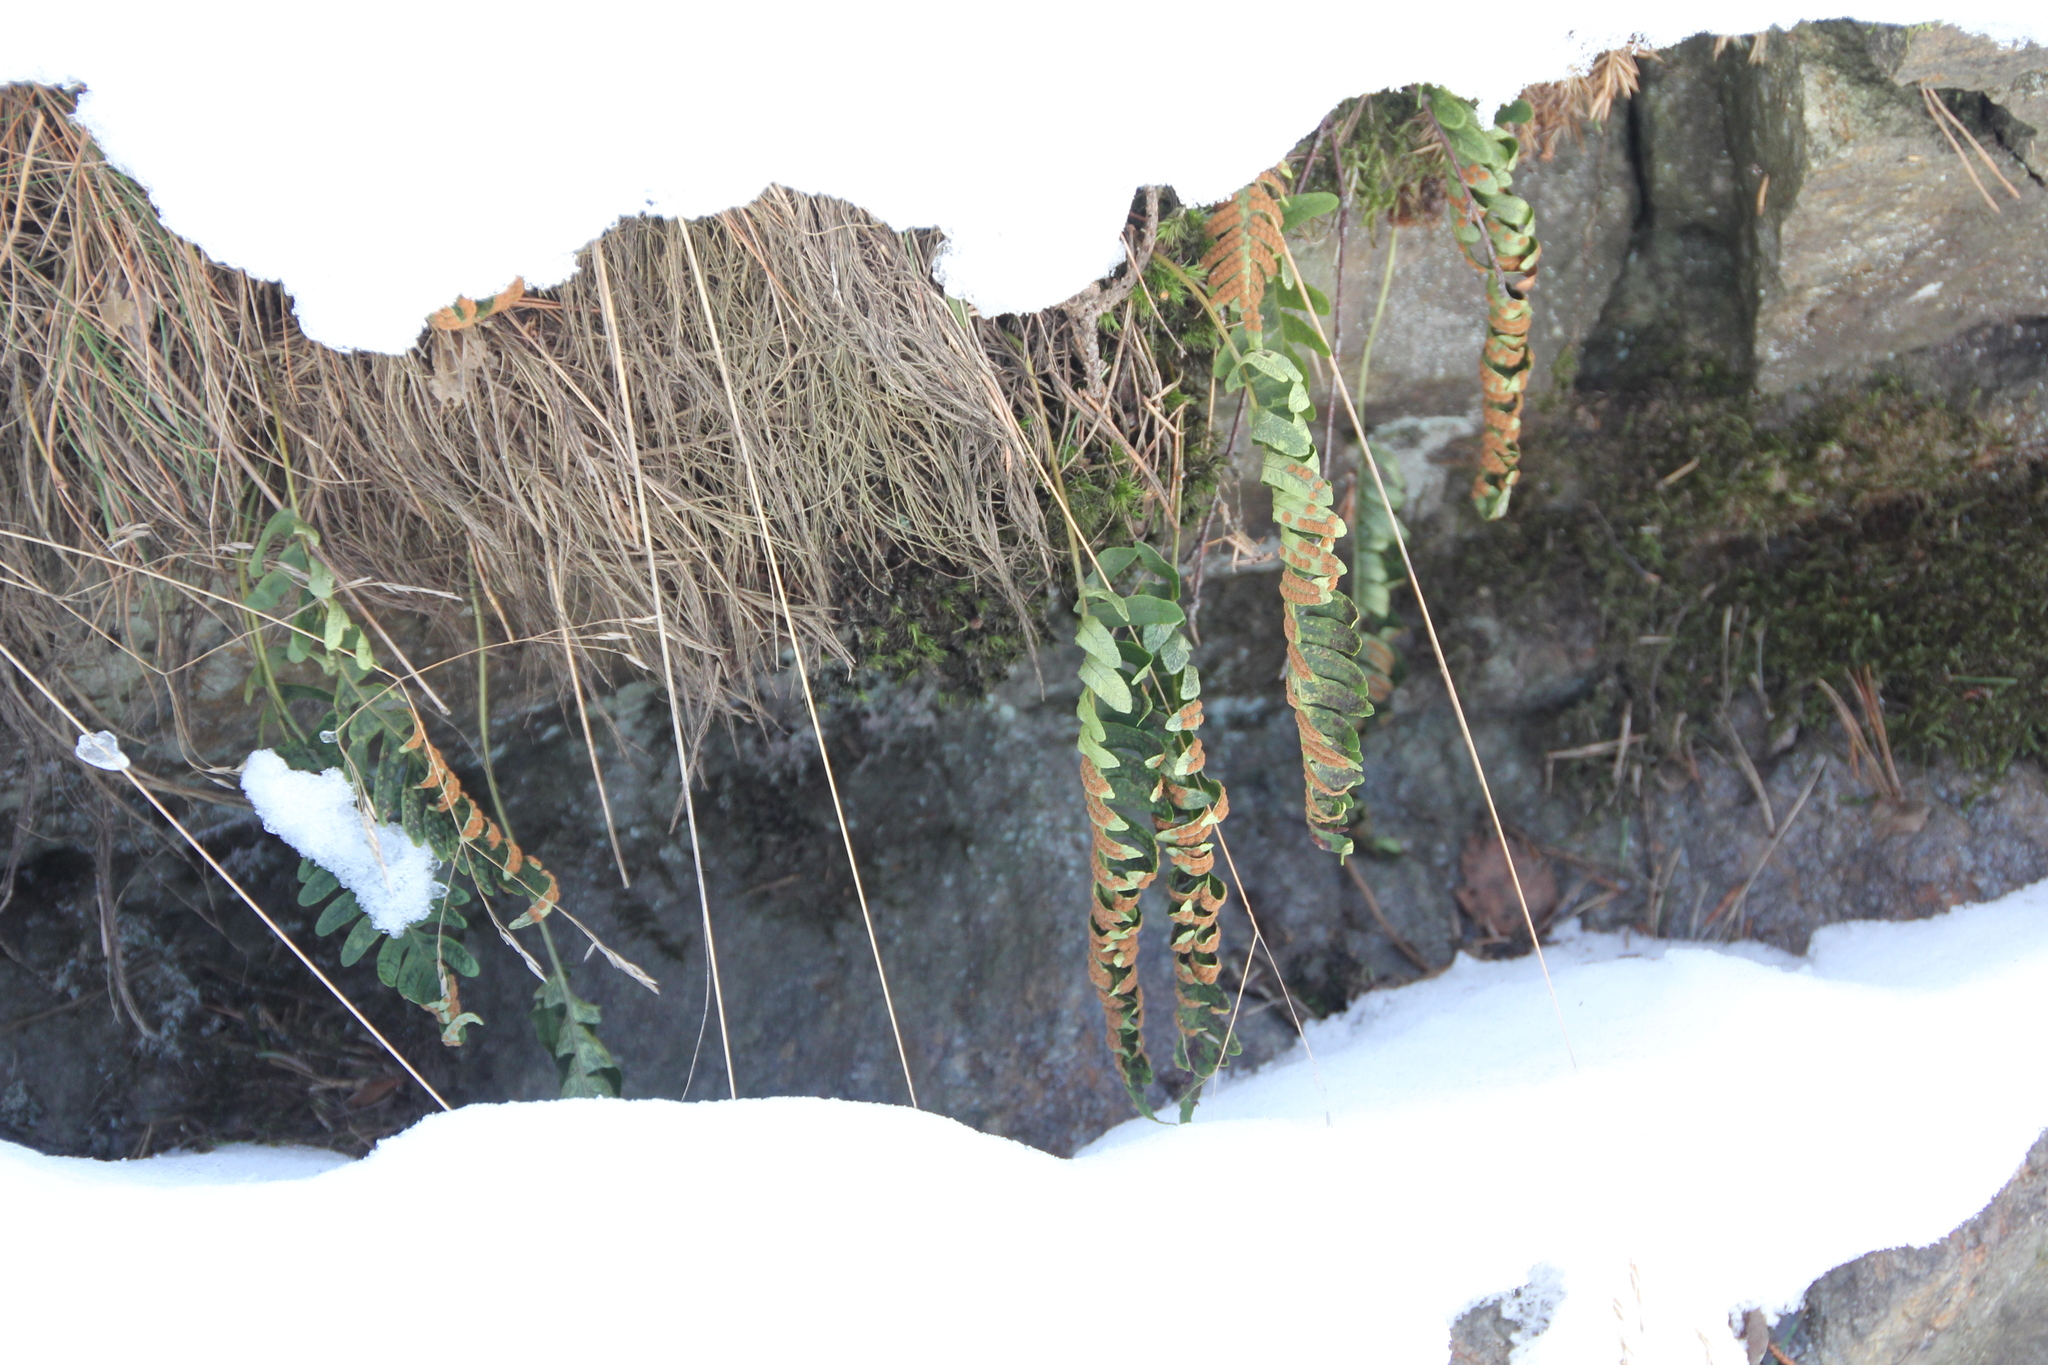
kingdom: Plantae
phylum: Tracheophyta
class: Polypodiopsida
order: Polypodiales
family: Polypodiaceae
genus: Polypodium
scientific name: Polypodium vulgare
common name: Common polypody
